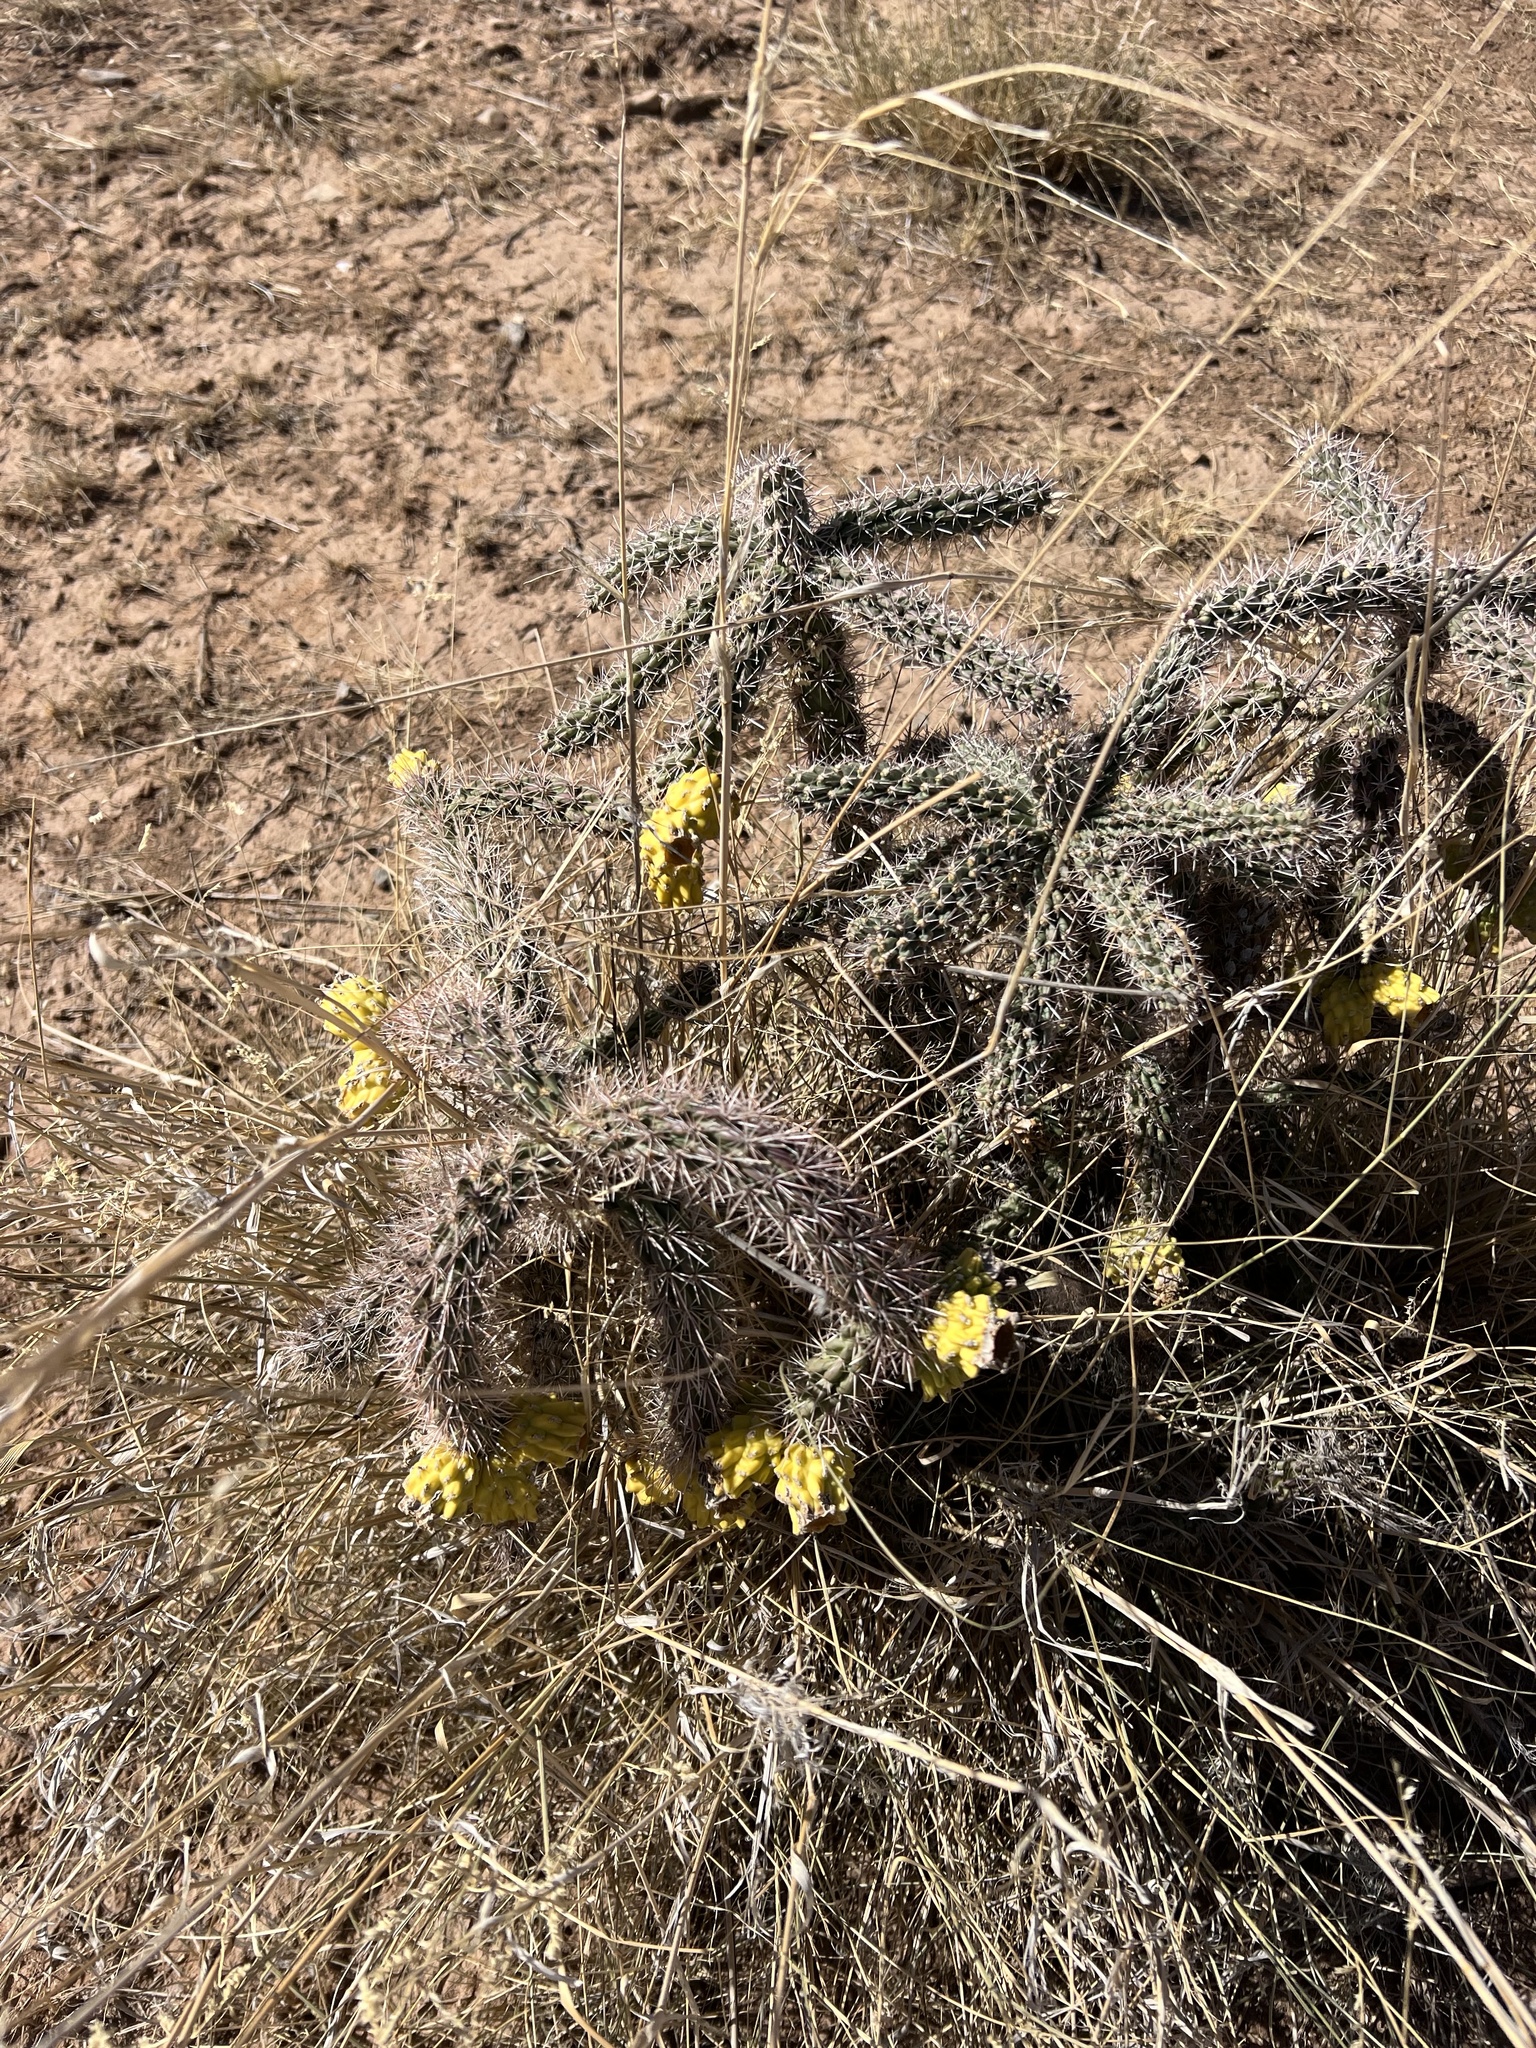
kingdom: Plantae
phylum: Tracheophyta
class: Magnoliopsida
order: Caryophyllales
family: Cactaceae
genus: Cylindropuntia
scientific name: Cylindropuntia imbricata
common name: Candelabrum cactus
